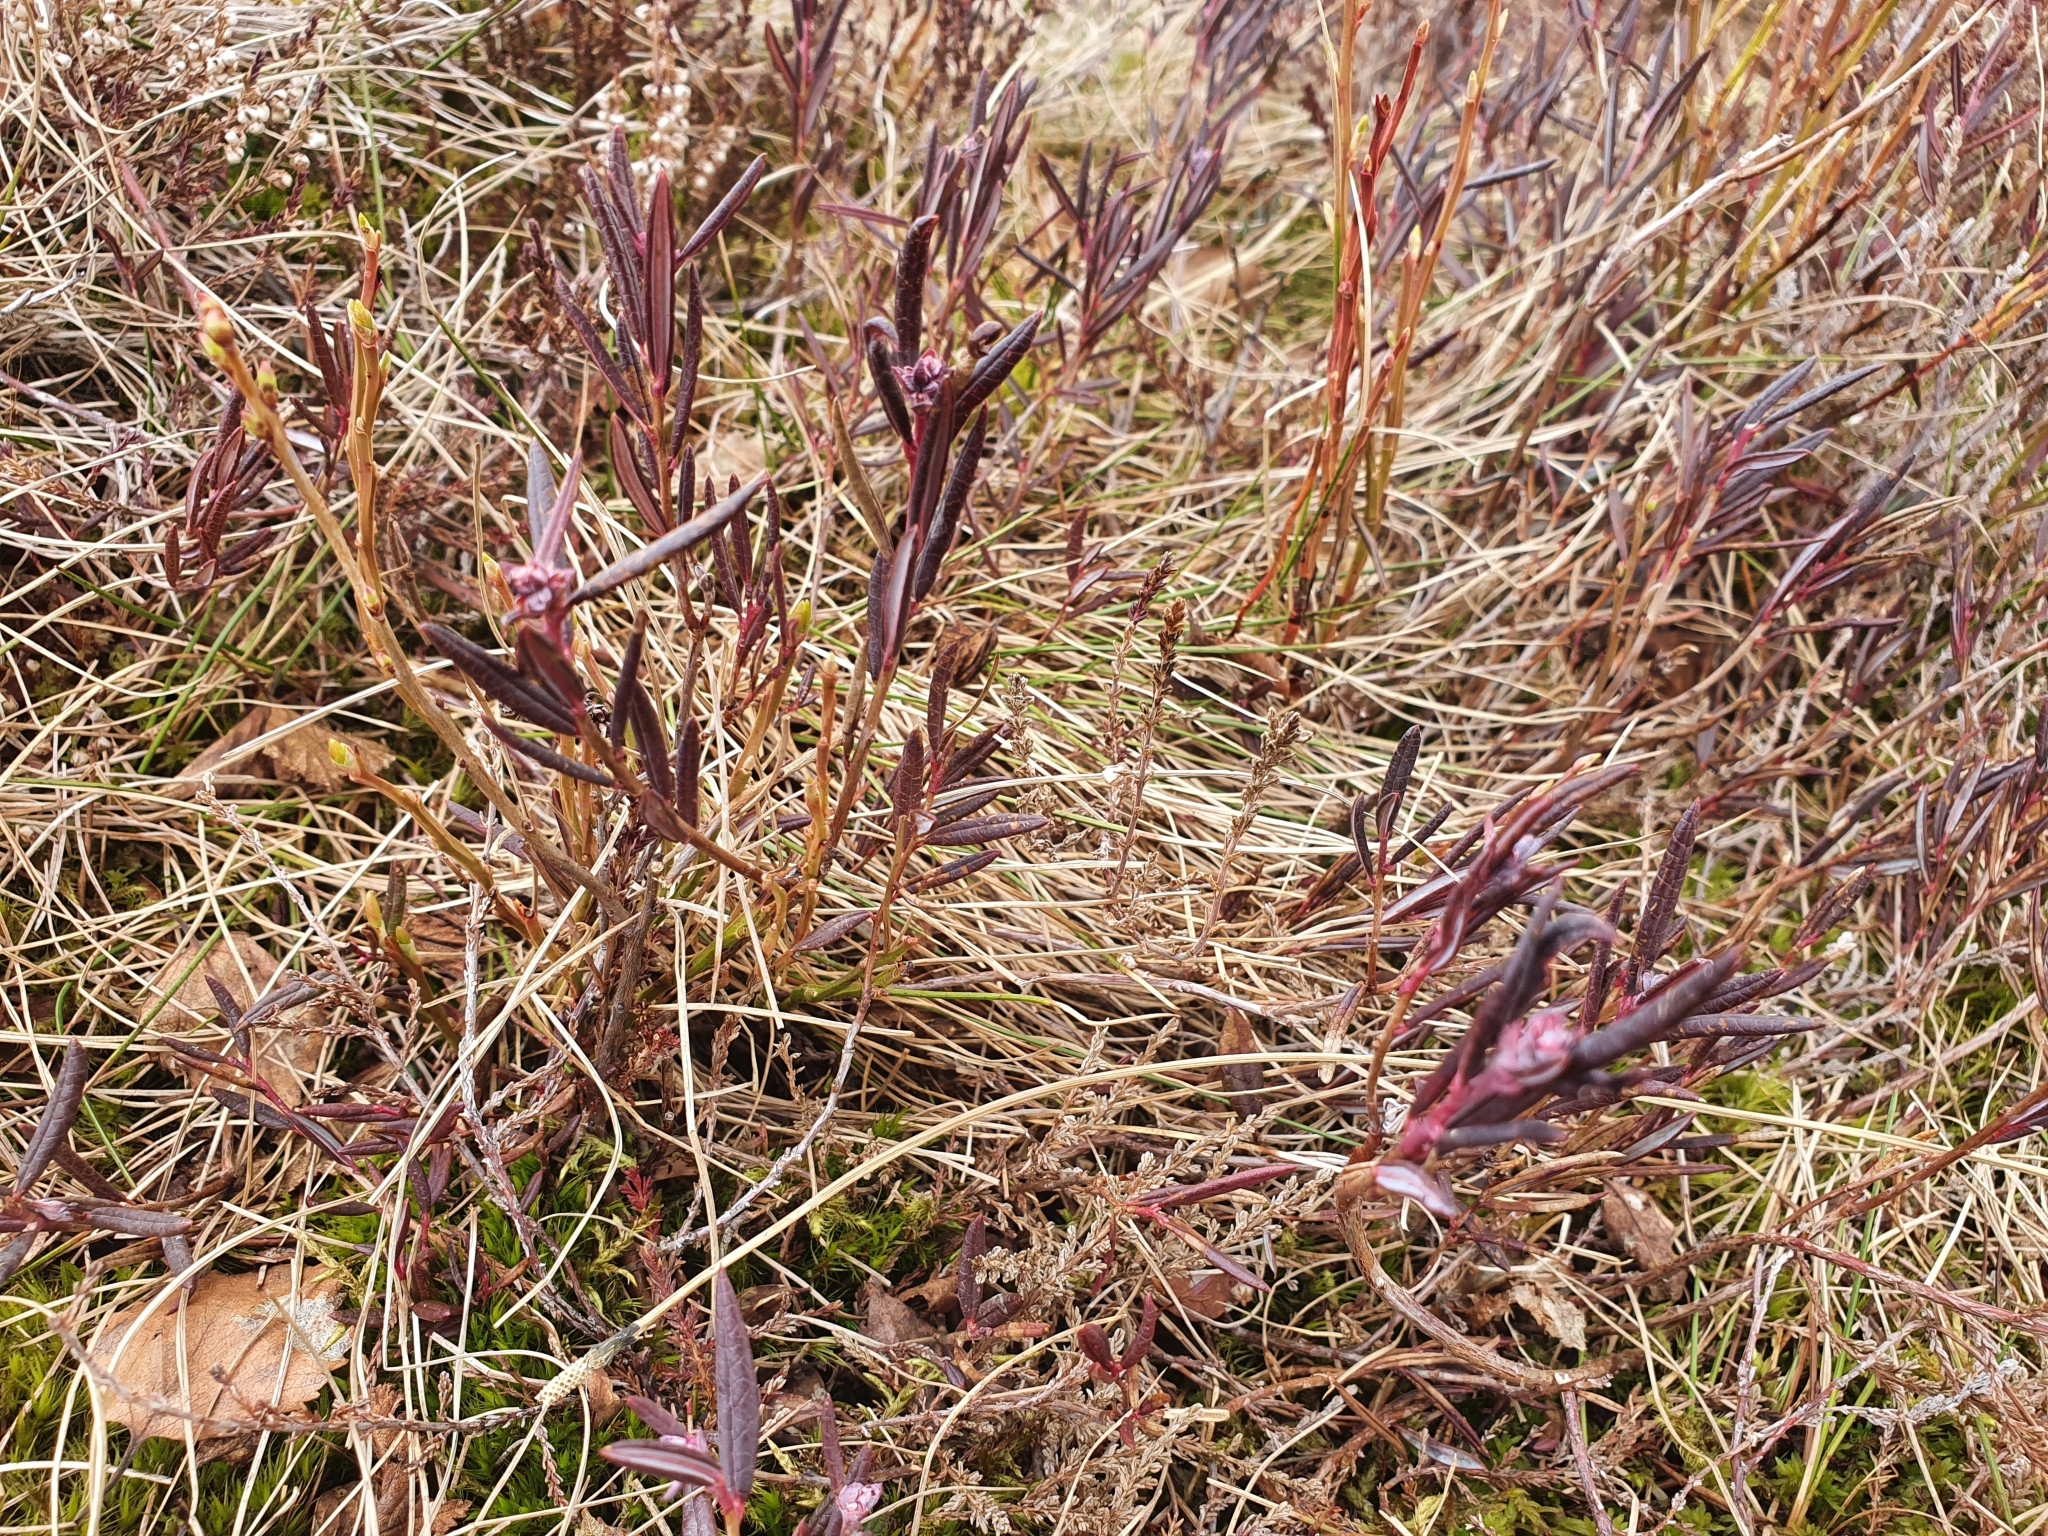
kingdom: Plantae
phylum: Tracheophyta
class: Magnoliopsida
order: Ericales
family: Ericaceae
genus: Andromeda
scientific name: Andromeda polifolia
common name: Bog-rosemary
